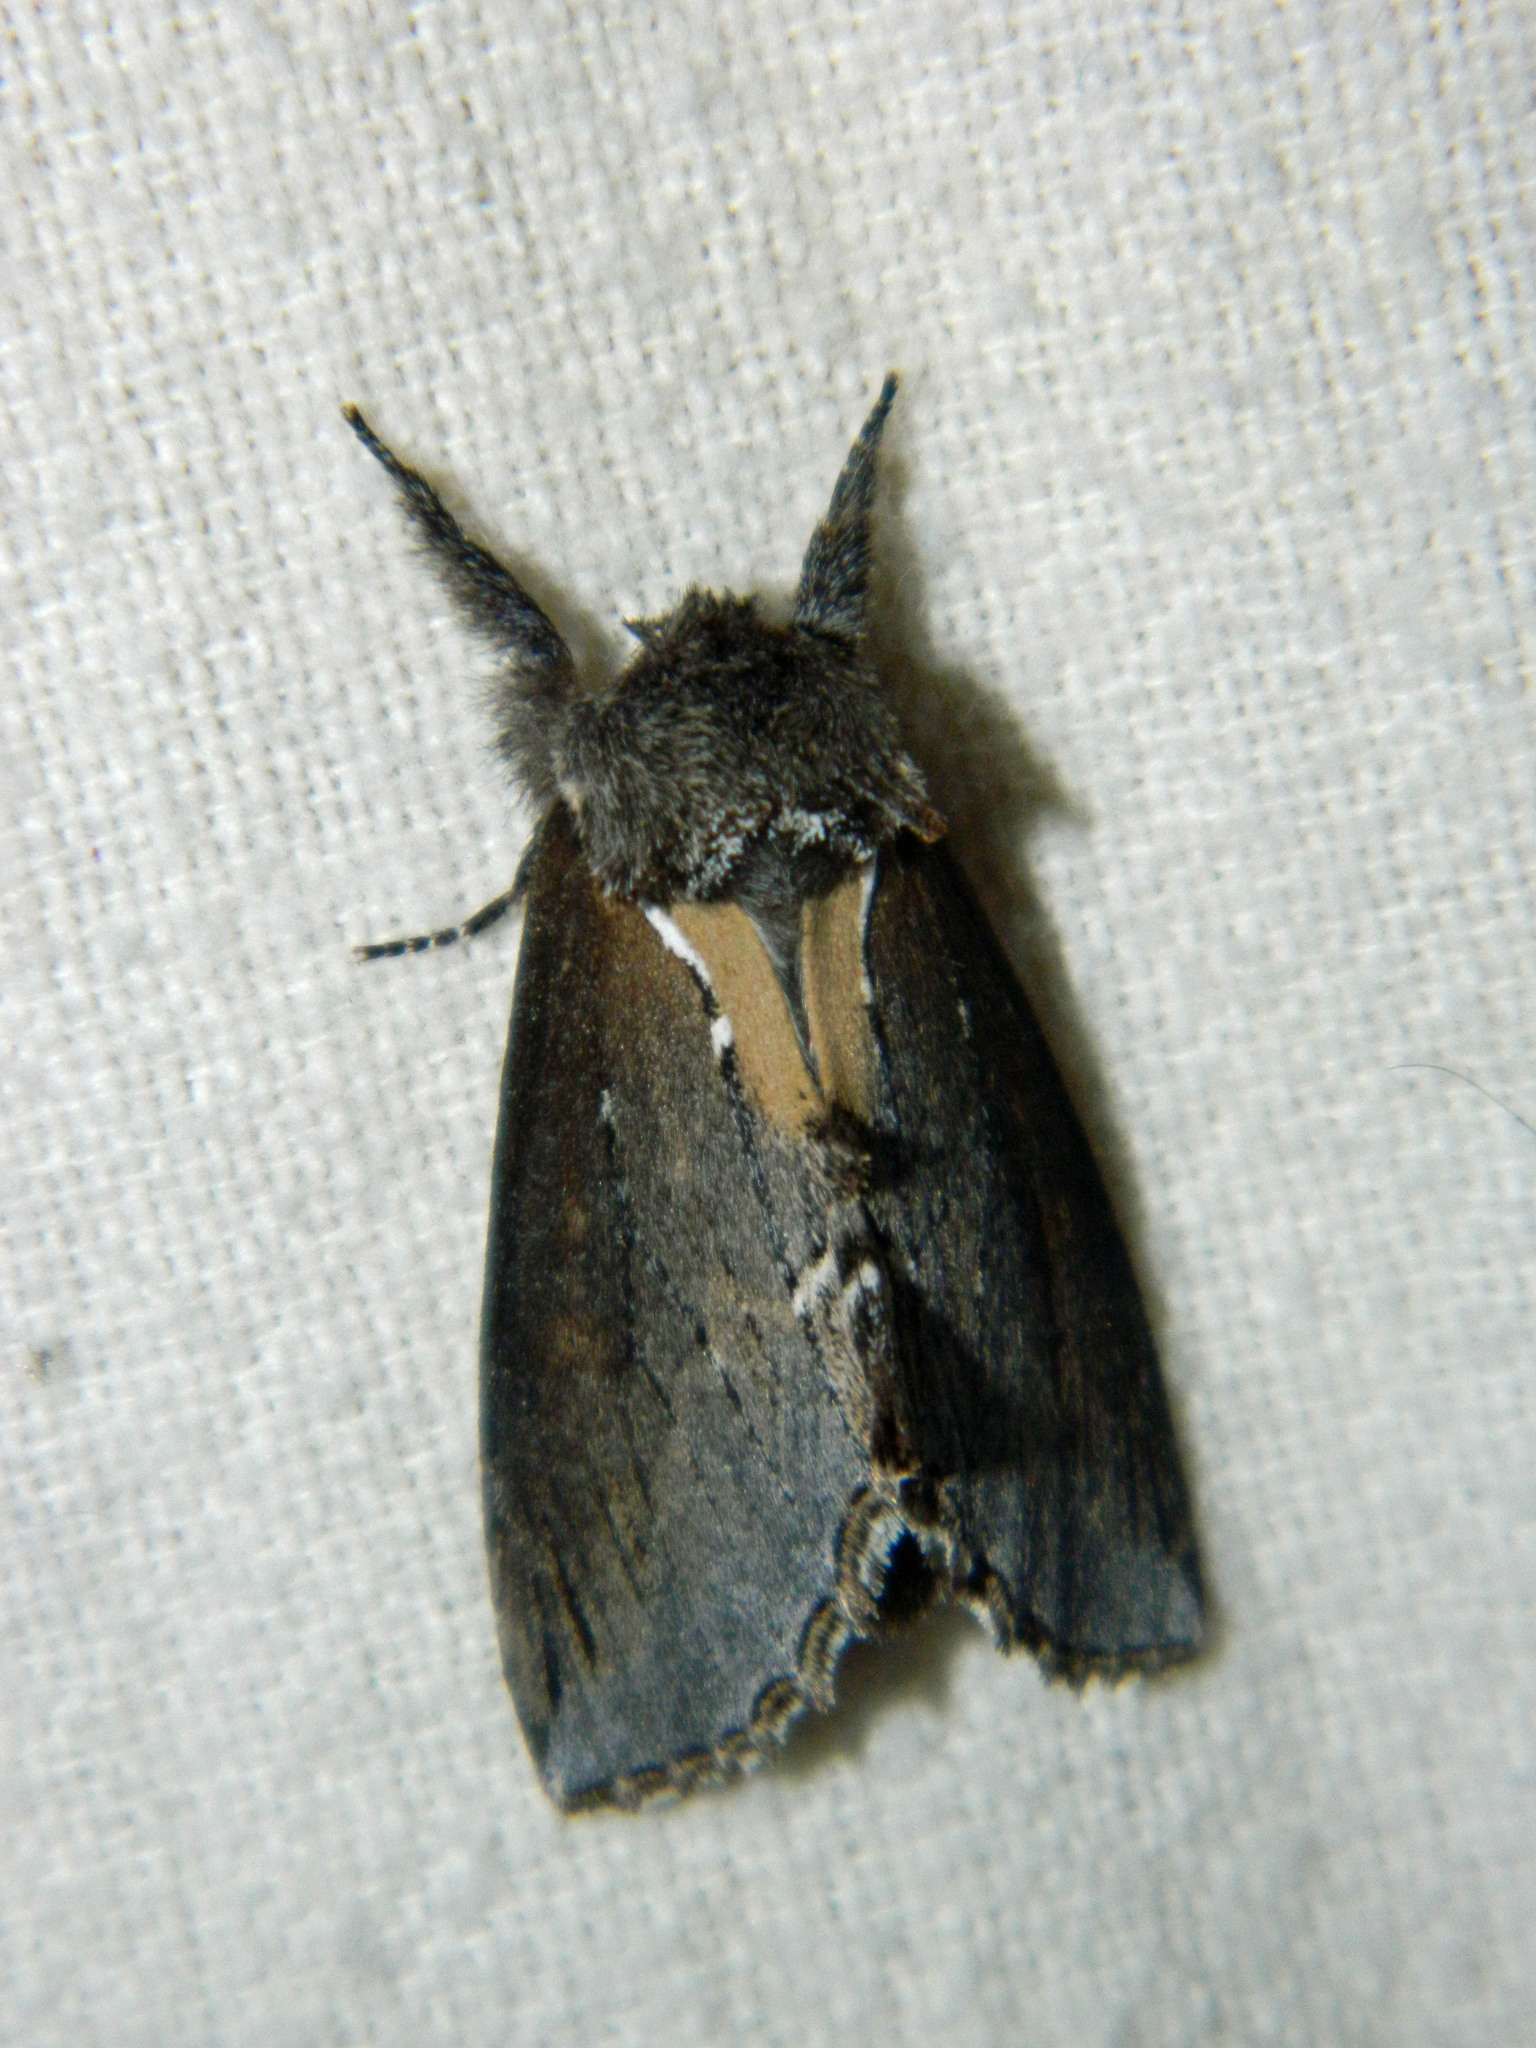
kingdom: Animalia
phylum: Arthropoda
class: Insecta
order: Lepidoptera
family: Notodontidae
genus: Pheosidea
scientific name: Pheosidea elegans
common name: Elegant prominent
